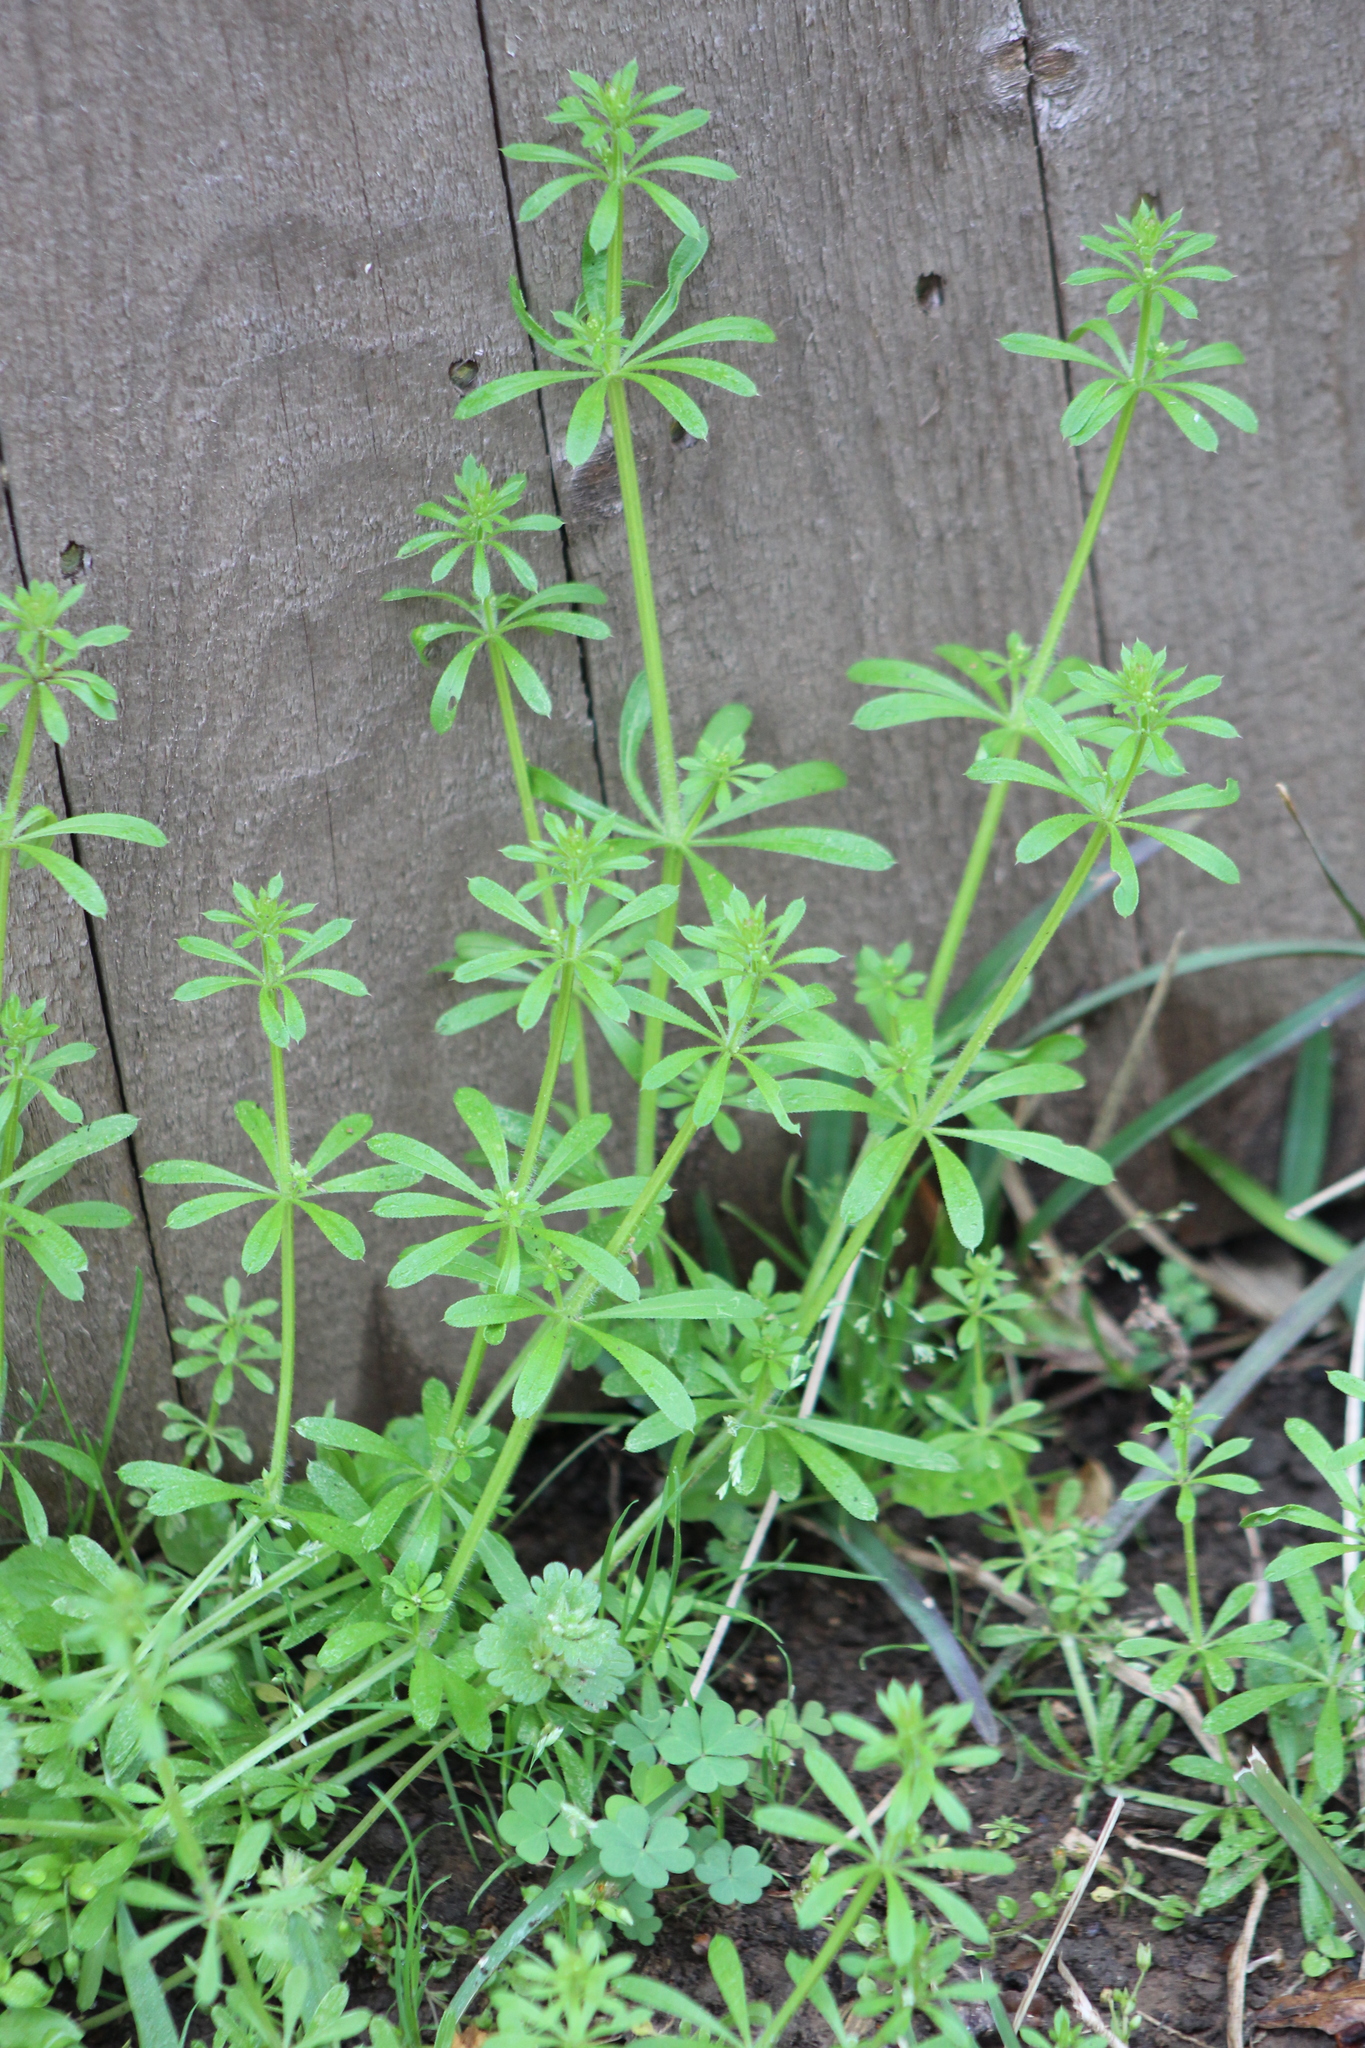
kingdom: Plantae
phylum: Tracheophyta
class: Magnoliopsida
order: Gentianales
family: Rubiaceae
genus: Galium
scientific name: Galium aparine
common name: Cleavers
